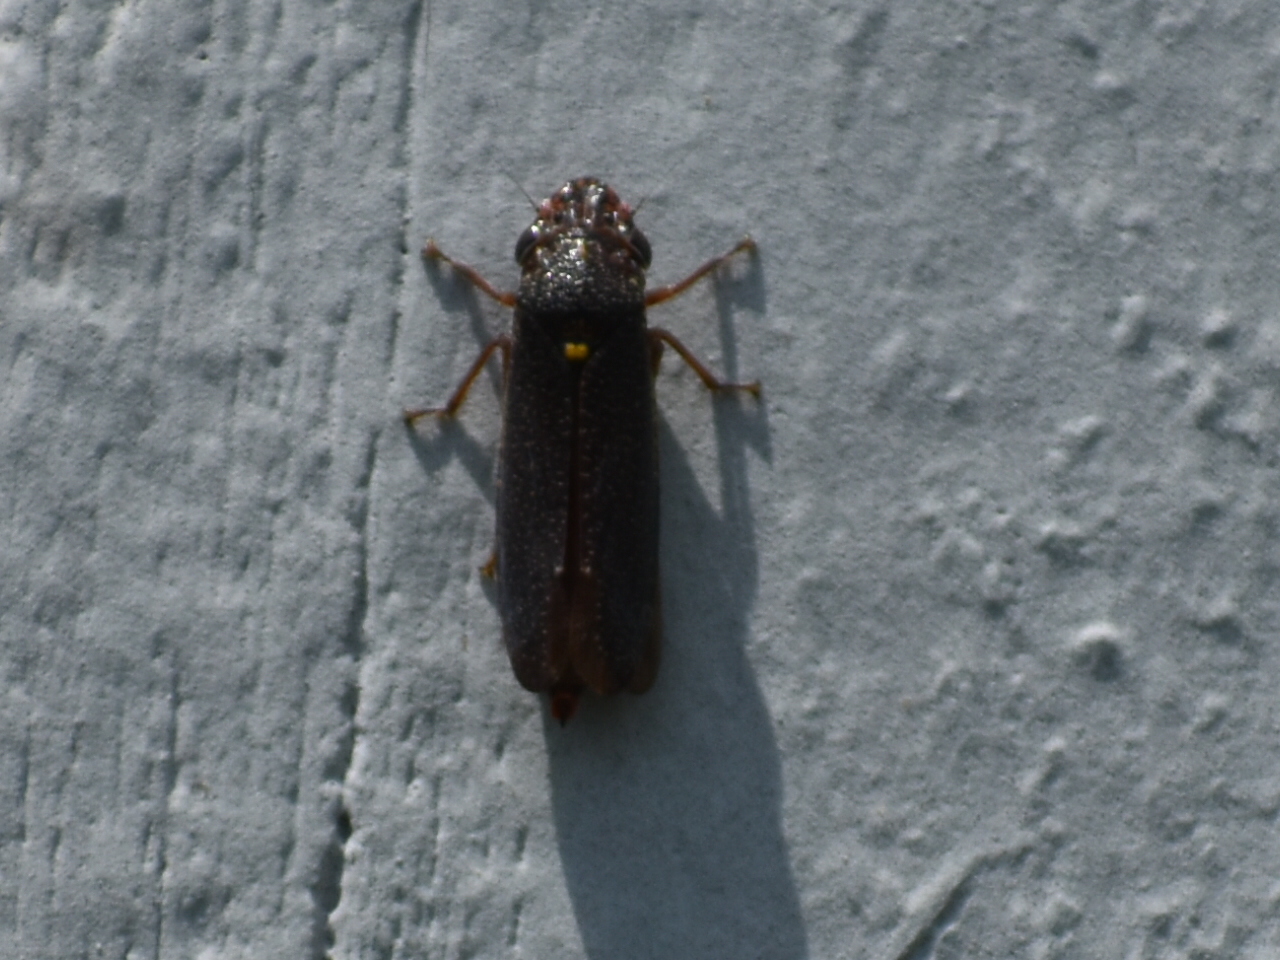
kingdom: Animalia
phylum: Arthropoda
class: Insecta
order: Hemiptera
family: Cicadellidae
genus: Paraulacizes
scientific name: Paraulacizes irrorata
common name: Speckled sharpshooter
